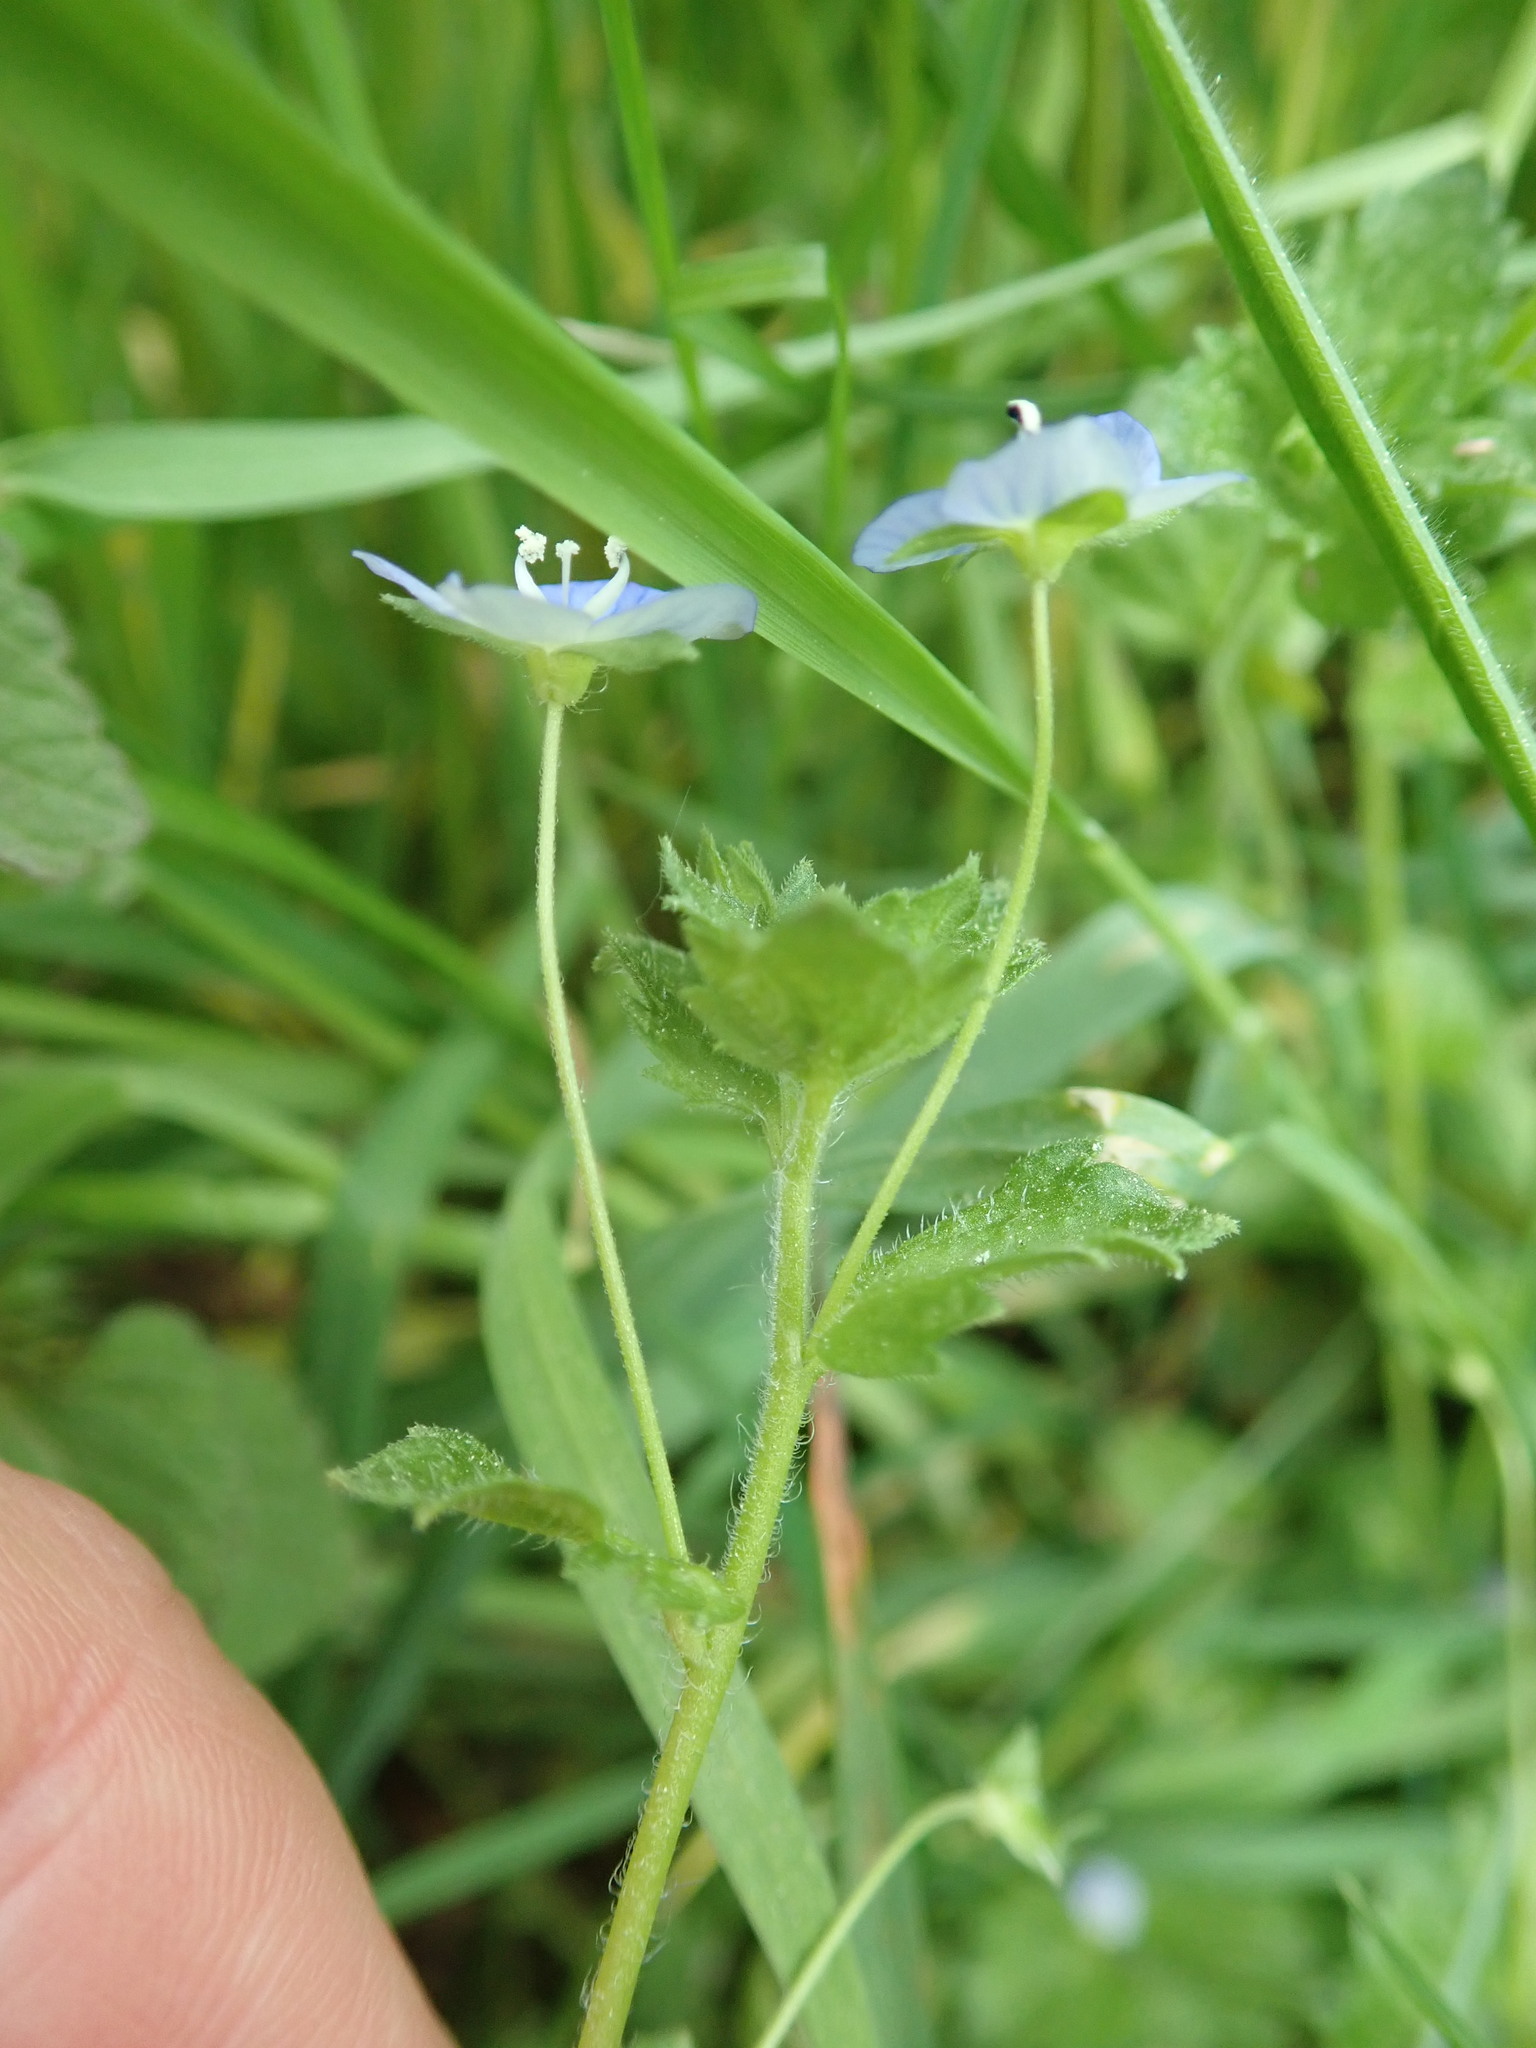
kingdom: Plantae
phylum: Tracheophyta
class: Magnoliopsida
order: Lamiales
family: Plantaginaceae
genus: Veronica
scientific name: Veronica persica
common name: Common field-speedwell
